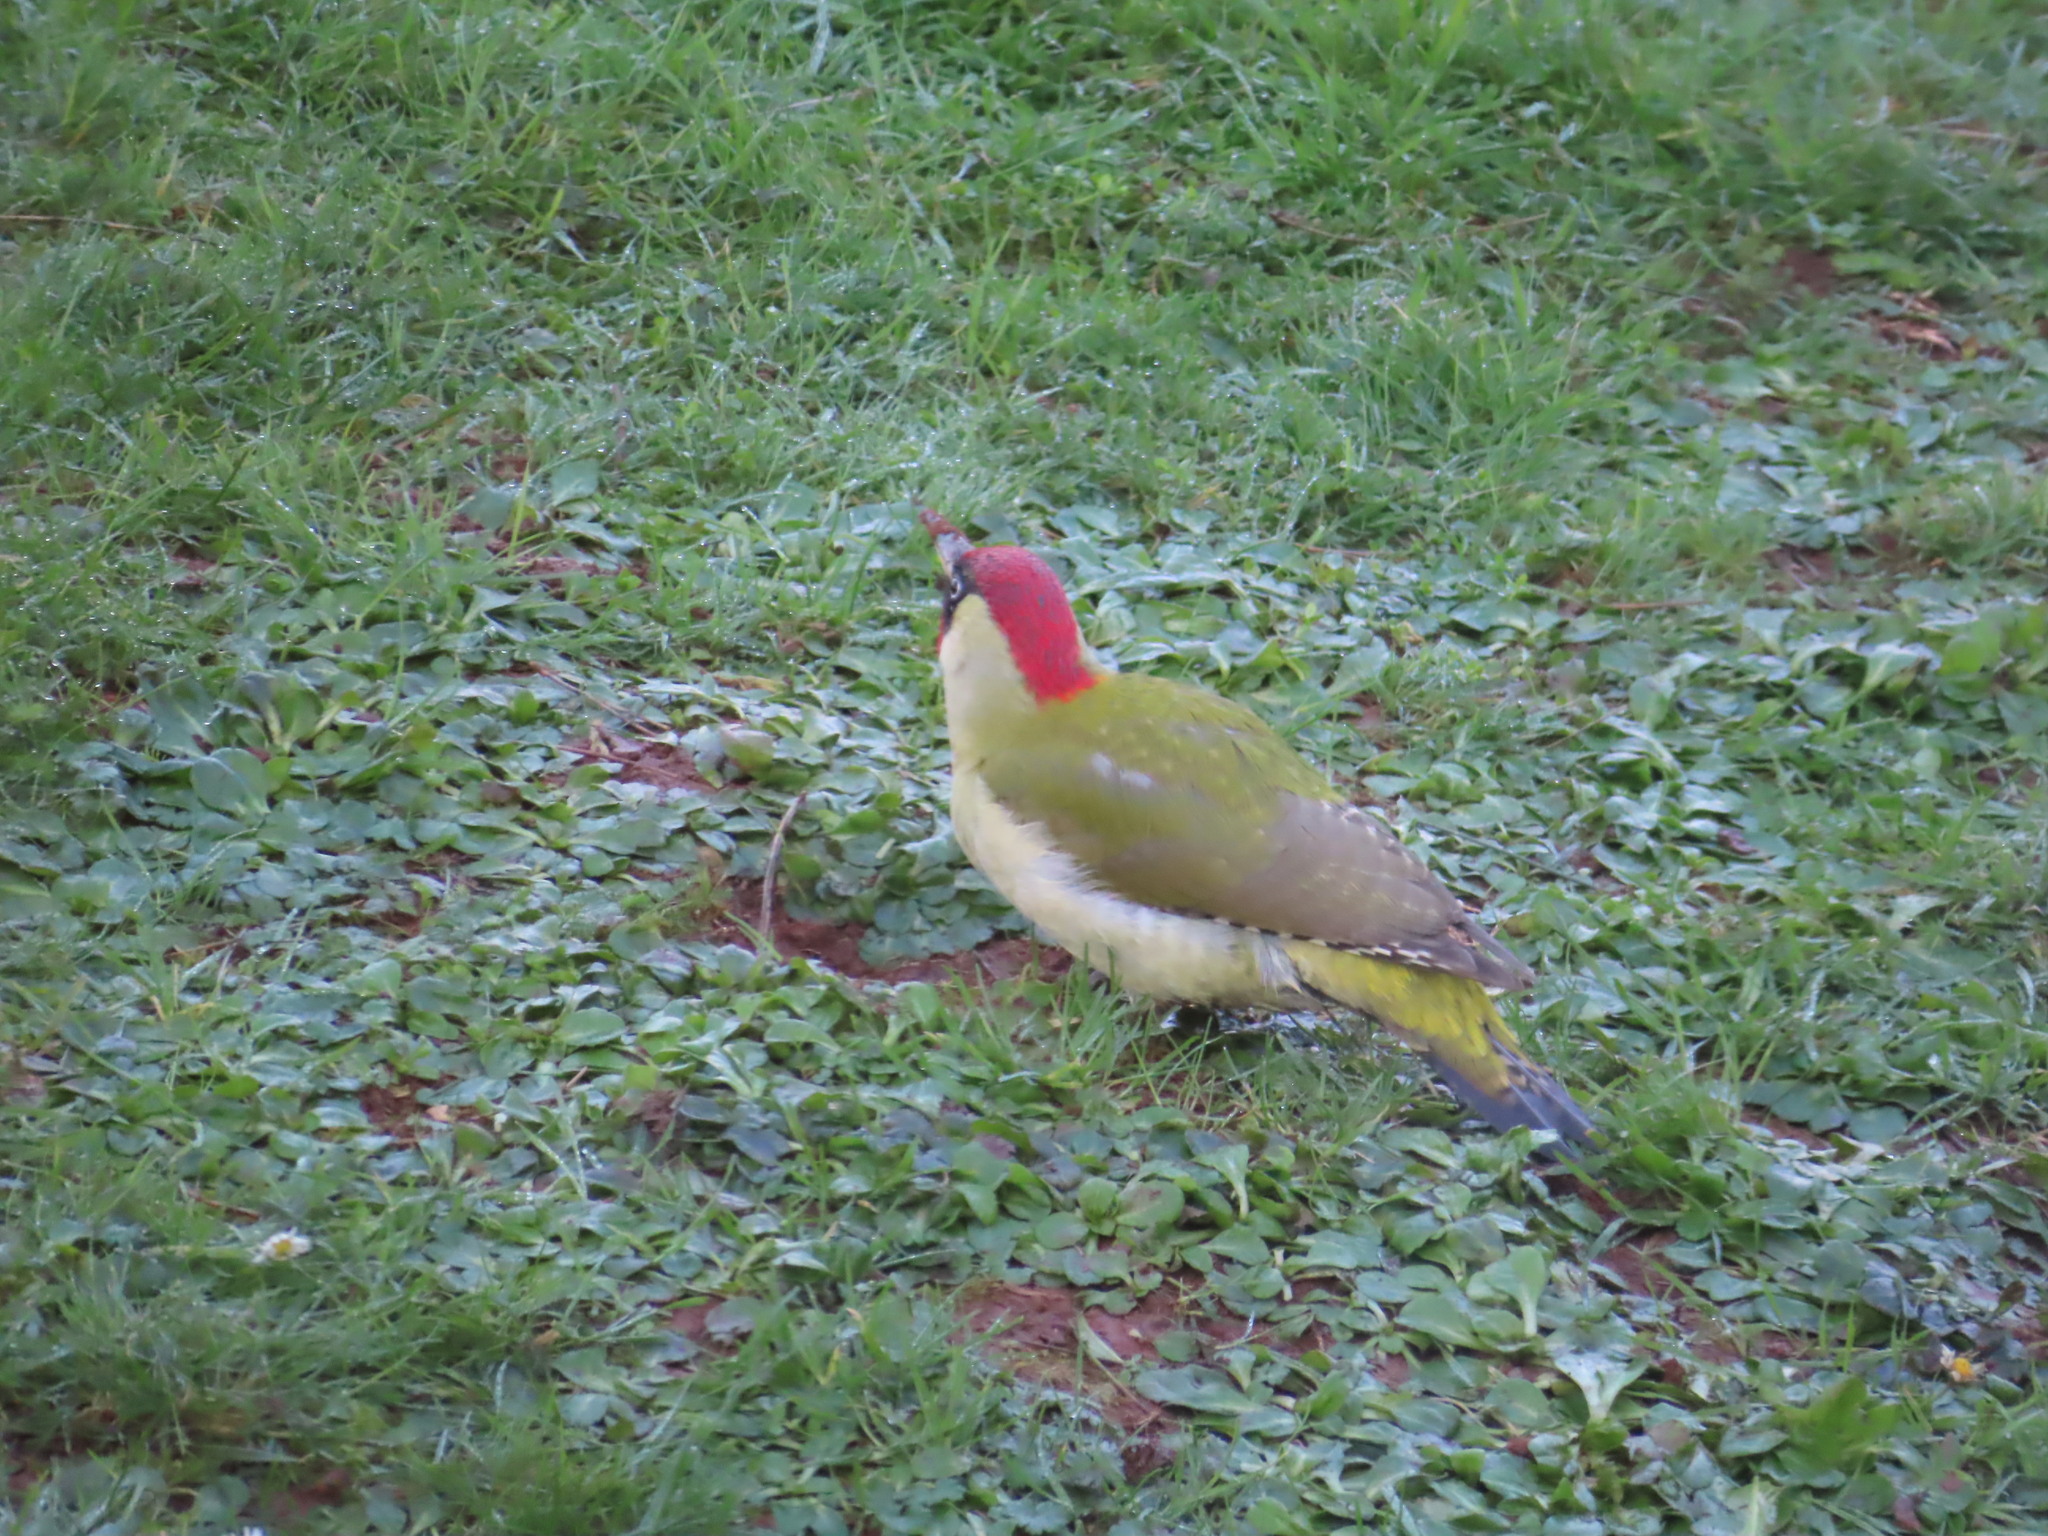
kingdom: Animalia
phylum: Chordata
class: Aves
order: Piciformes
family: Picidae
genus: Picus
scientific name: Picus viridis
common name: European green woodpecker
